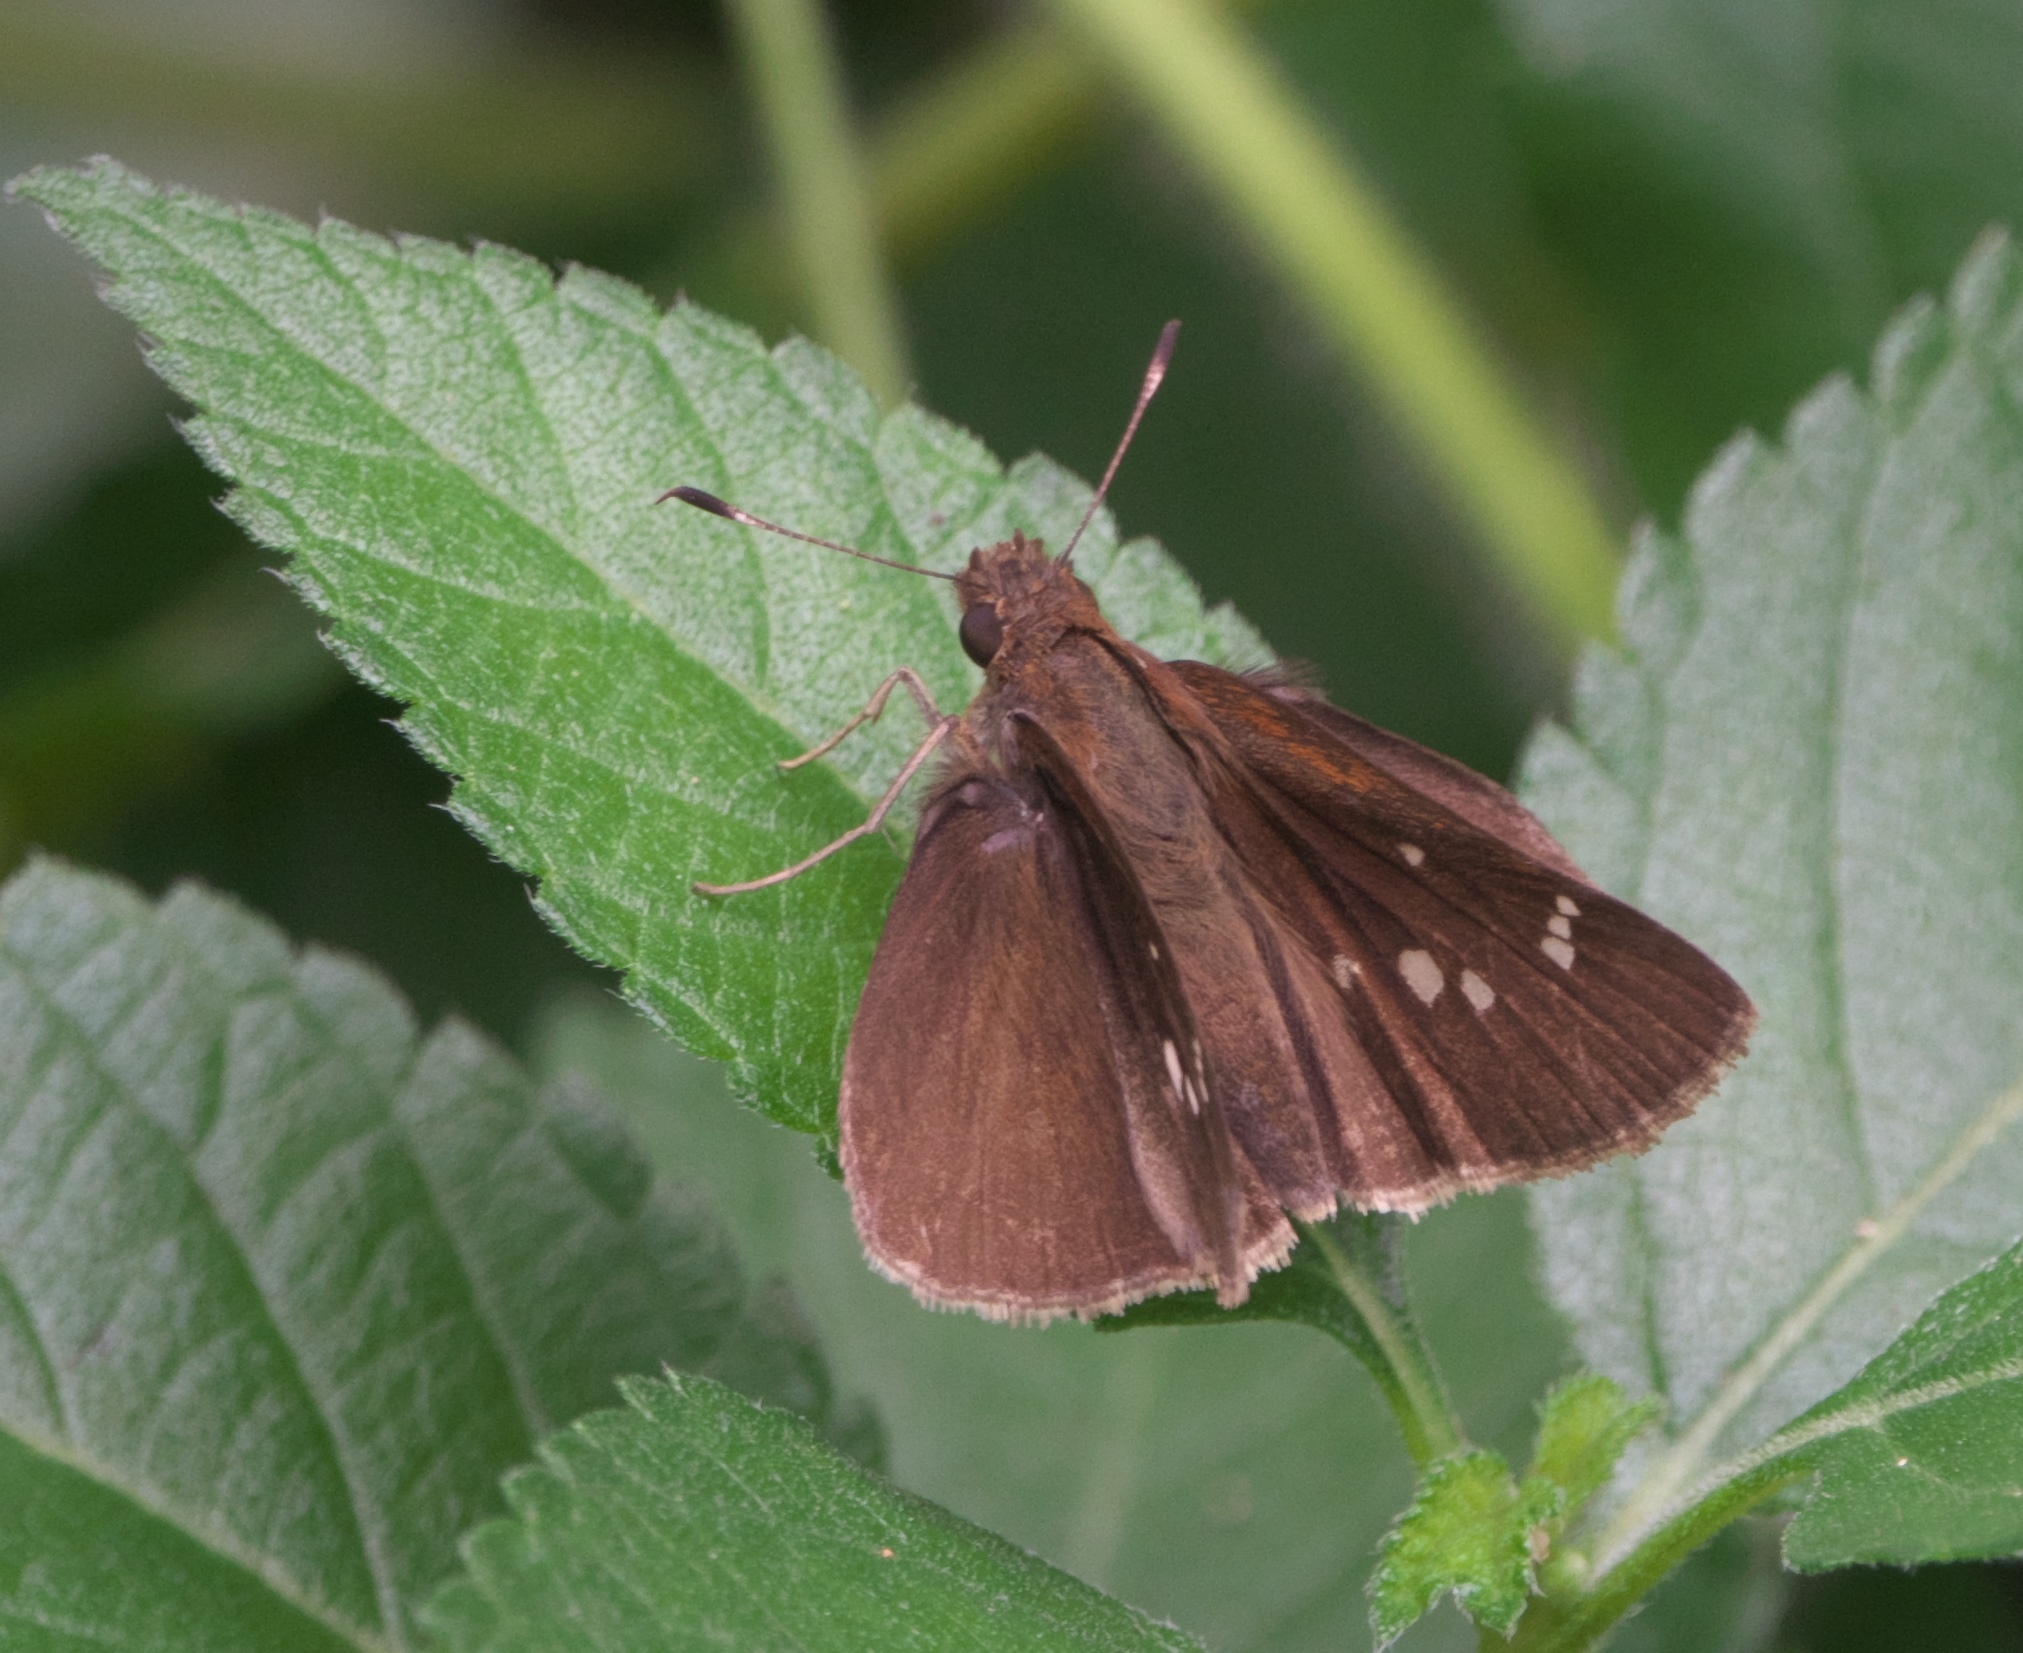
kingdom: Animalia
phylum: Arthropoda
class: Insecta
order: Lepidoptera
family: Hesperiidae
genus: Lerema
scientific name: Lerema accius
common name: Clouded skipper
